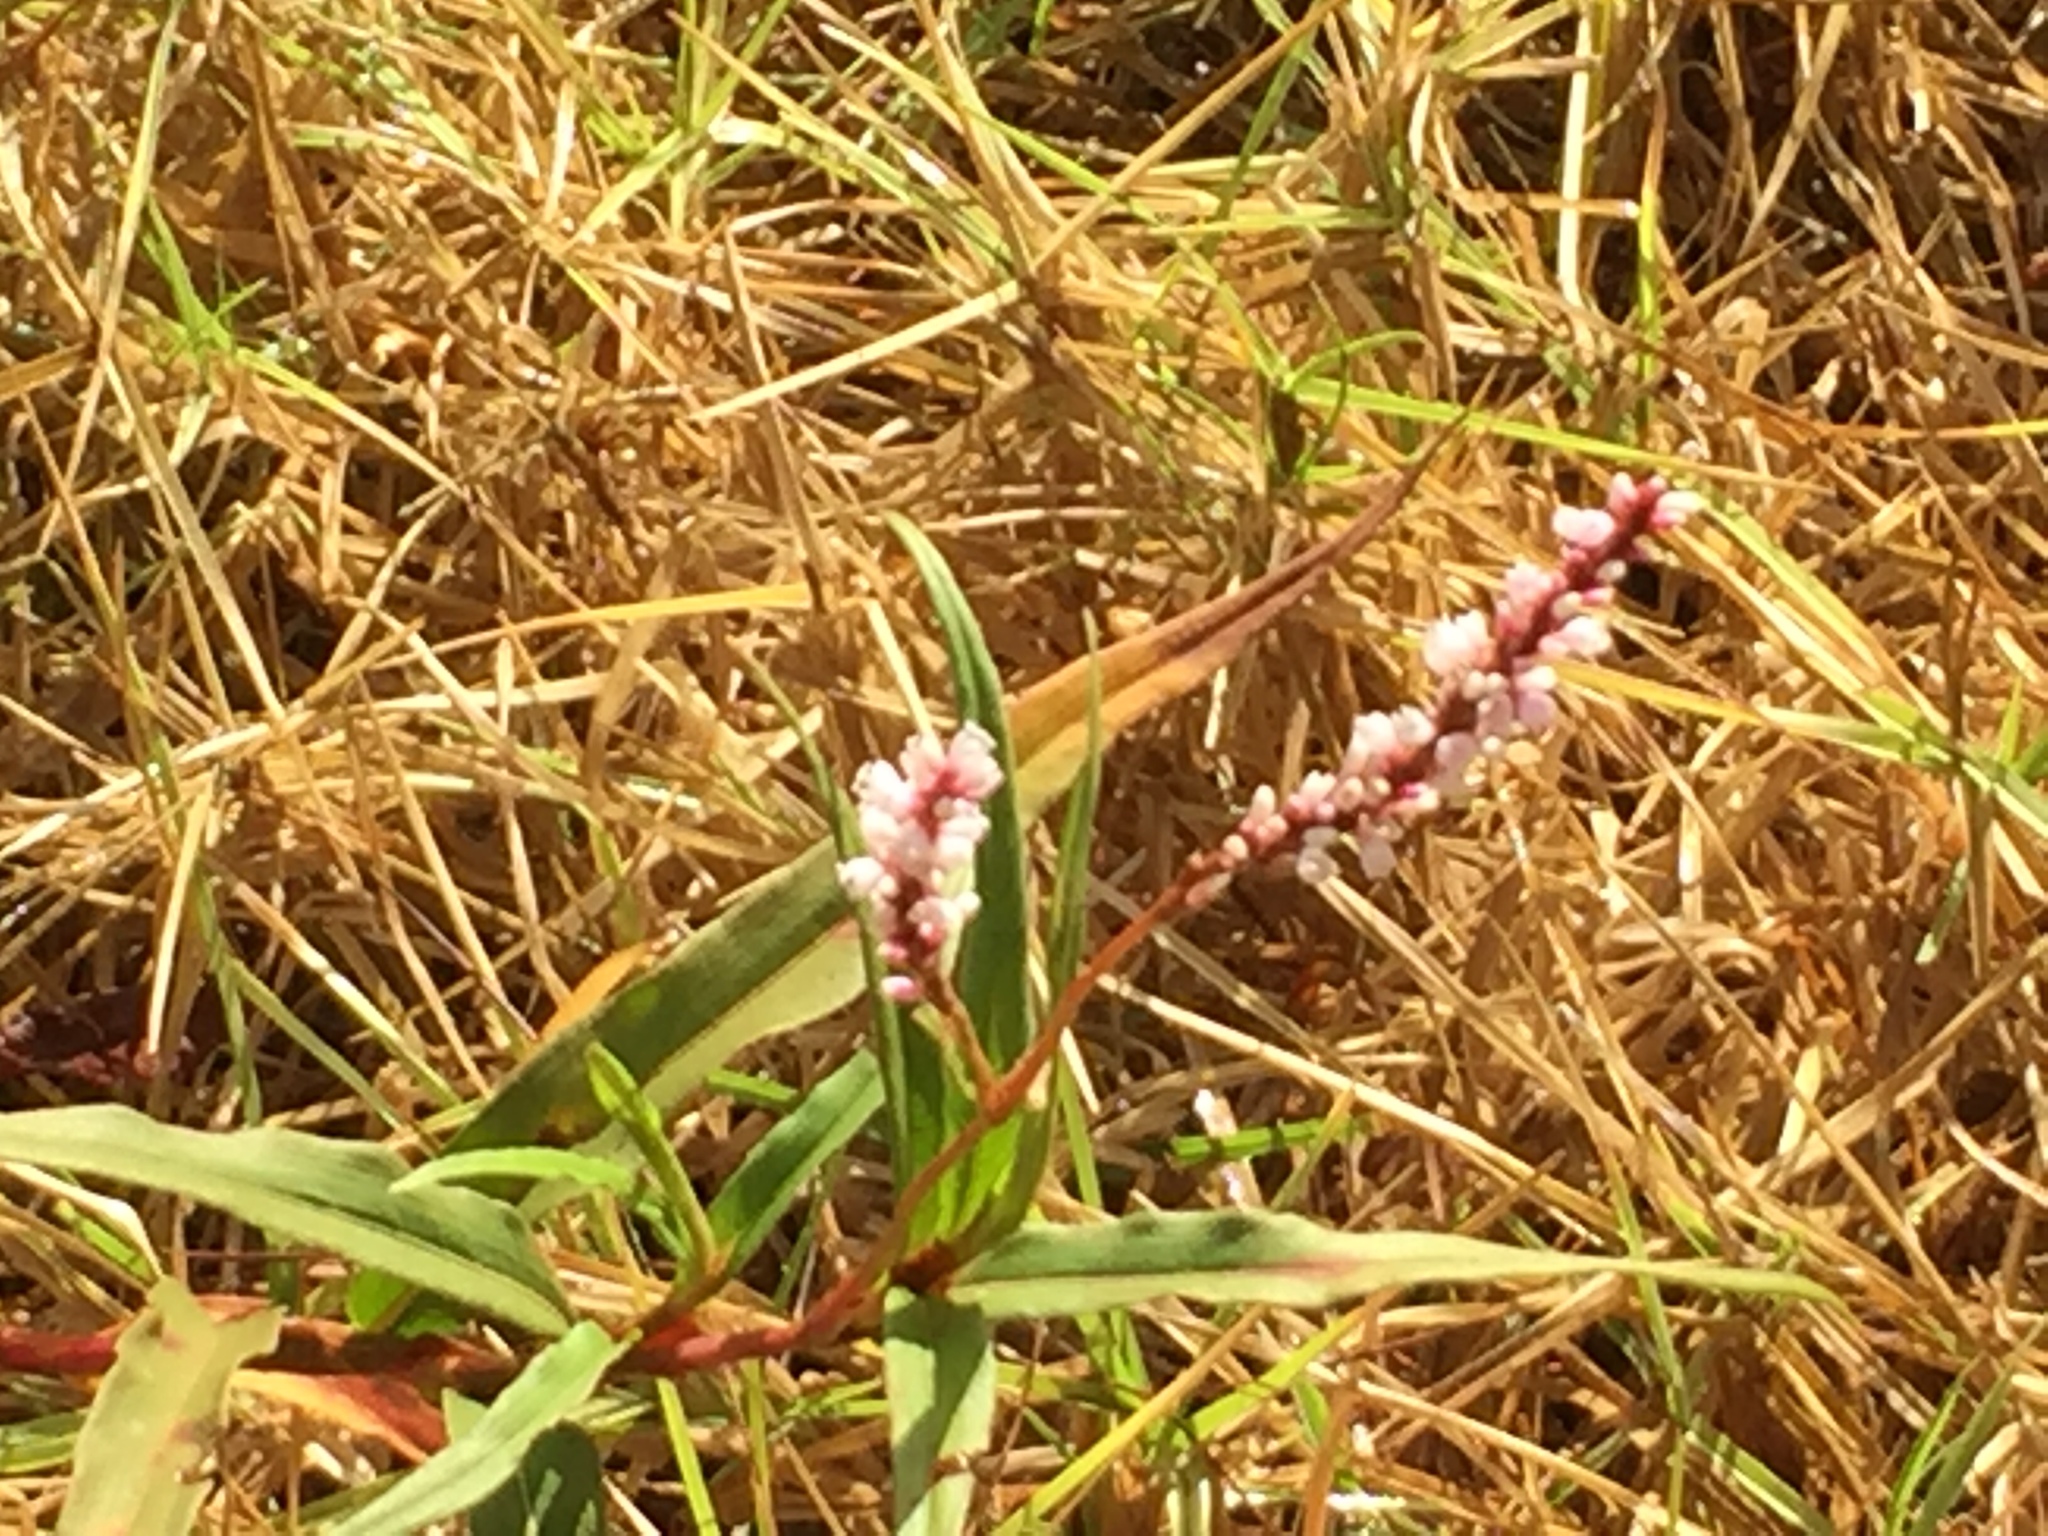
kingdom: Plantae
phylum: Tracheophyta
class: Magnoliopsida
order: Caryophyllales
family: Polygonaceae
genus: Persicaria
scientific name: Persicaria madagascariensis
